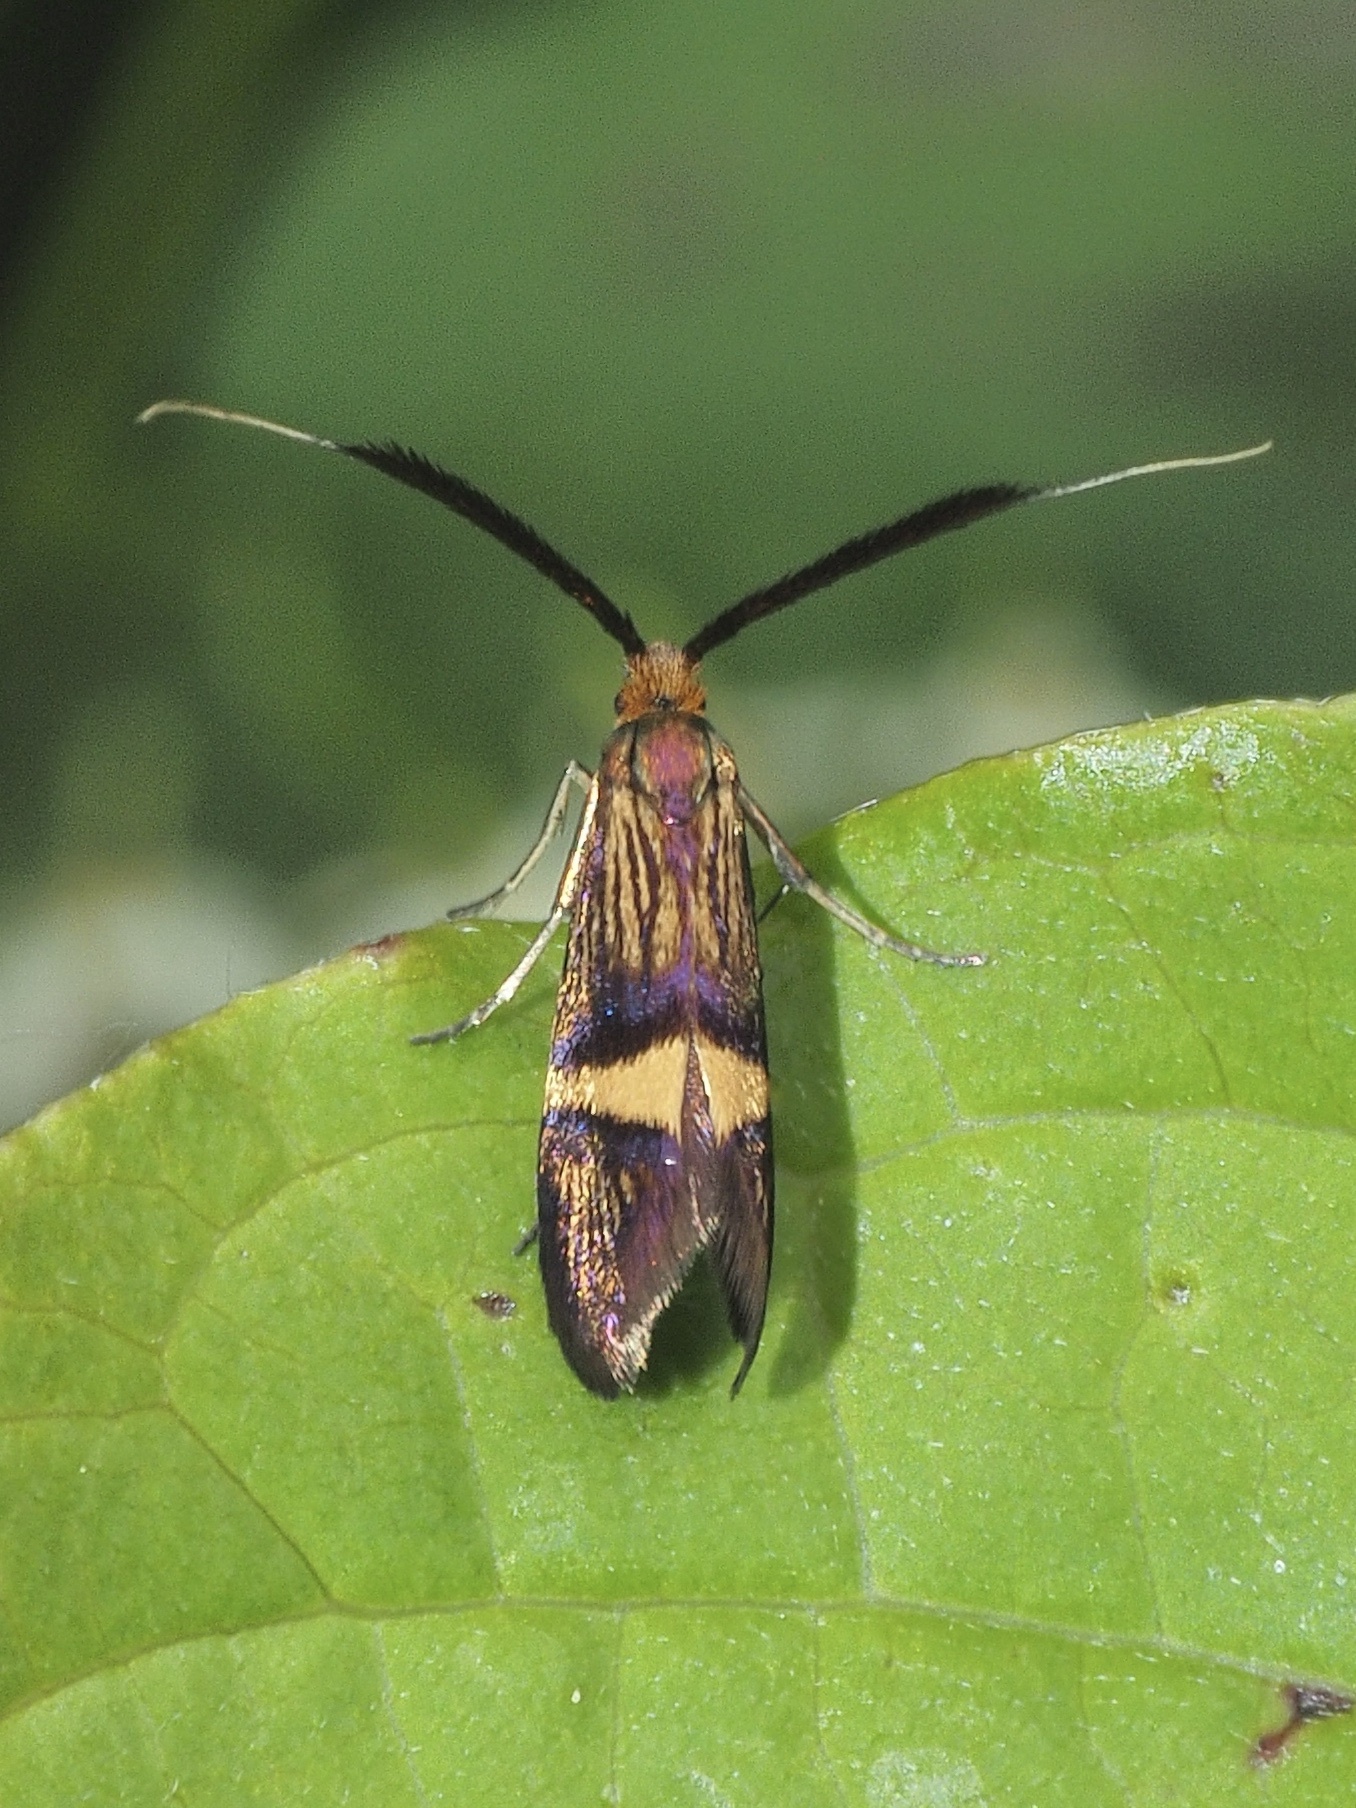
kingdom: Animalia
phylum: Arthropoda
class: Insecta
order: Lepidoptera
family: Adelidae
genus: Adela
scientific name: Adela croesella
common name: Small barred long-horn
